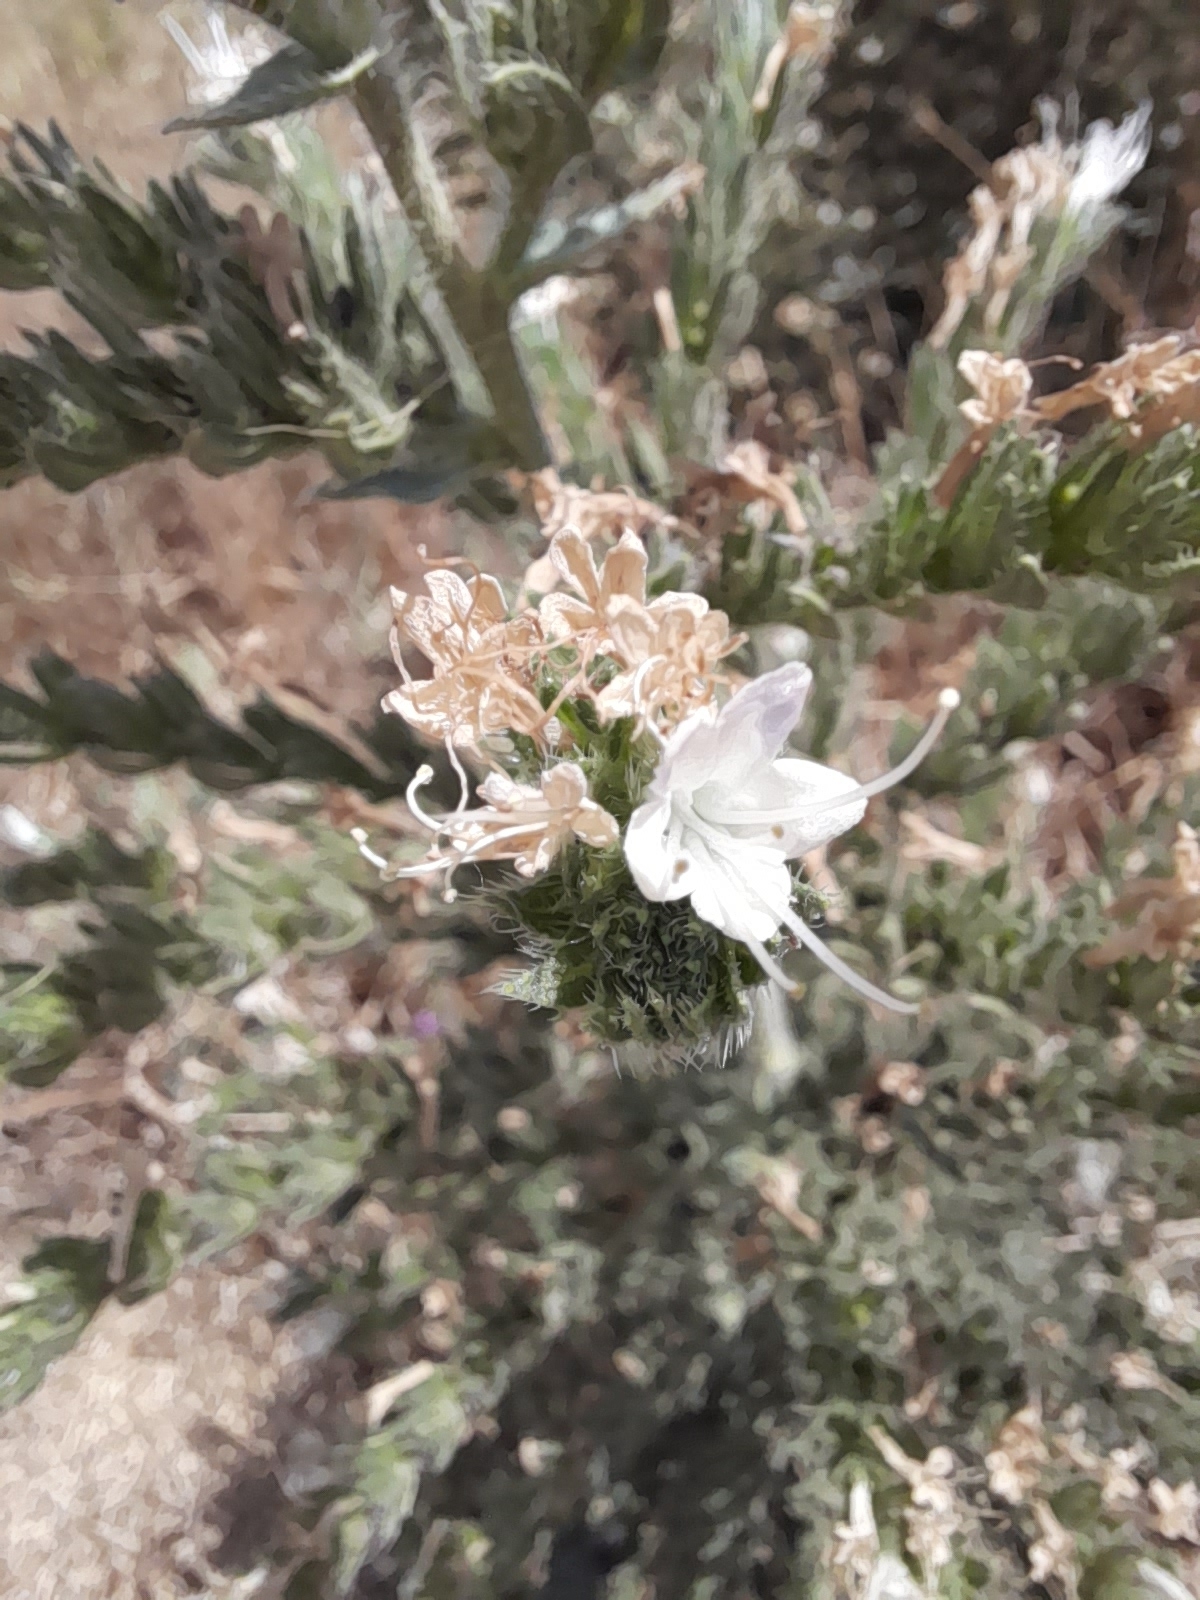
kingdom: Plantae
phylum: Tracheophyta
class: Magnoliopsida
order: Boraginales
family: Boraginaceae
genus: Echium
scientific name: Echium italicum
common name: Italian viper's bugloss
